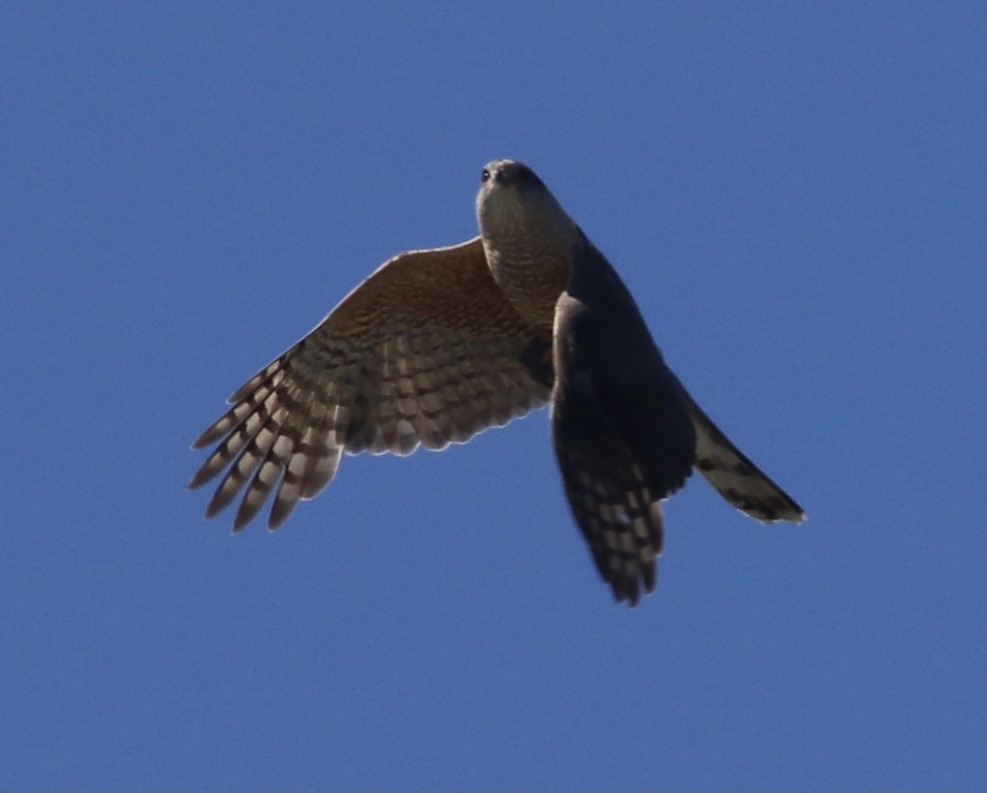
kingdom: Animalia
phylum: Chordata
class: Aves
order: Accipitriformes
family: Accipitridae
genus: Accipiter
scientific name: Accipiter cooperii
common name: Cooper's hawk
